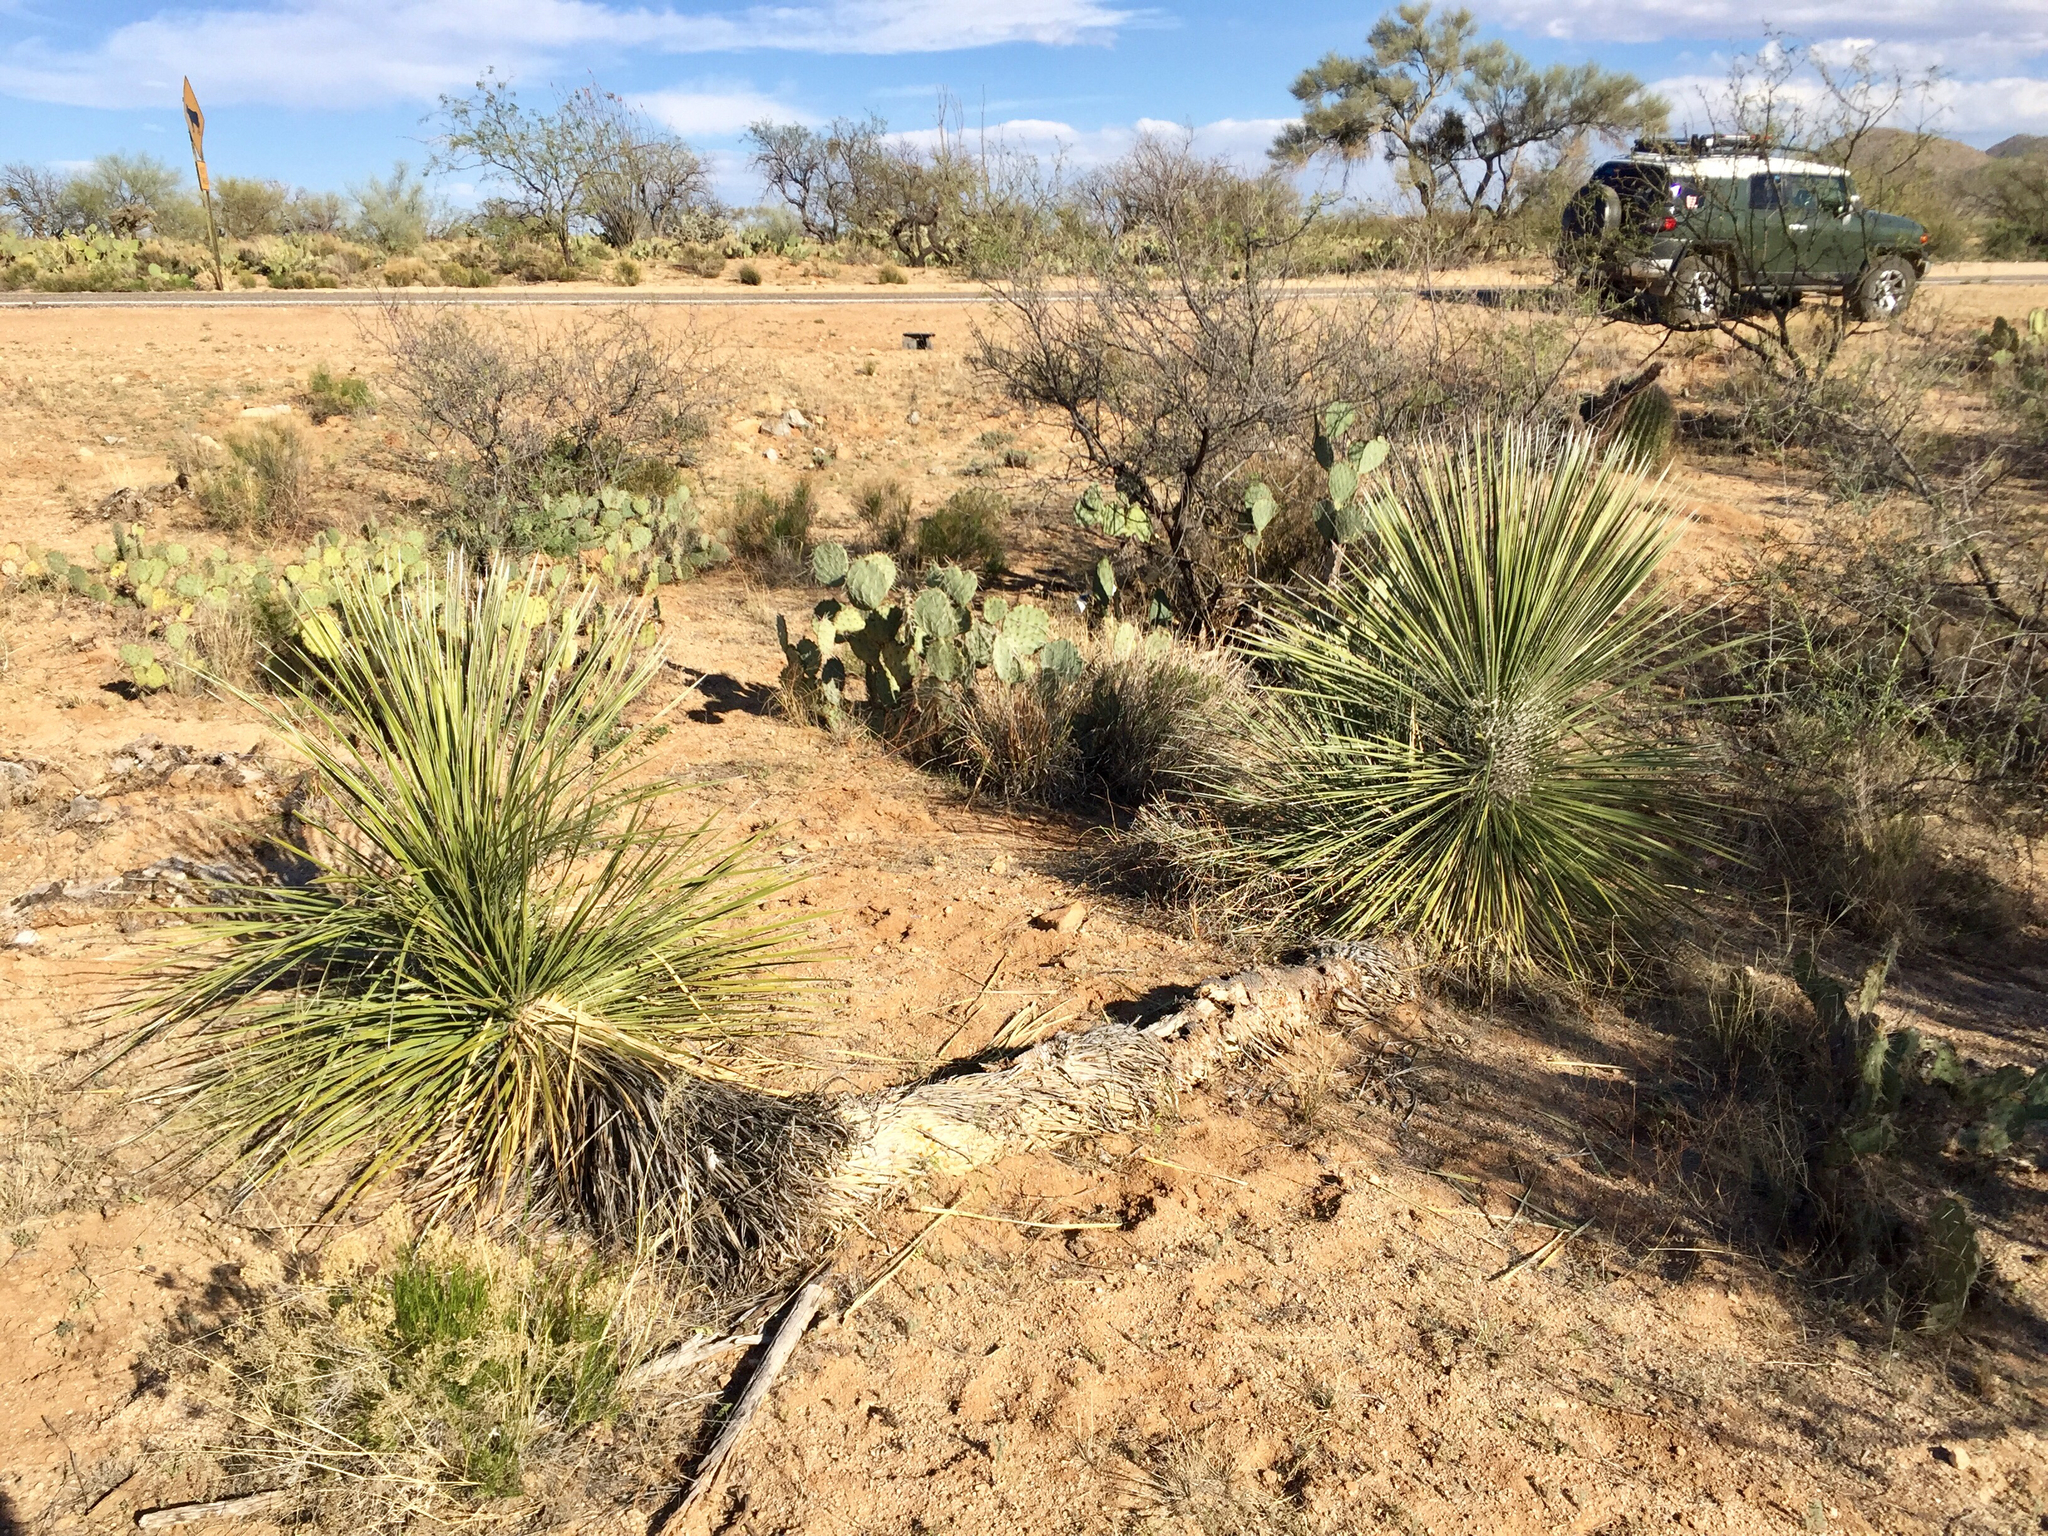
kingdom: Plantae
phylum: Tracheophyta
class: Liliopsida
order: Asparagales
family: Asparagaceae
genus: Yucca
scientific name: Yucca elata
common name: Palmella
